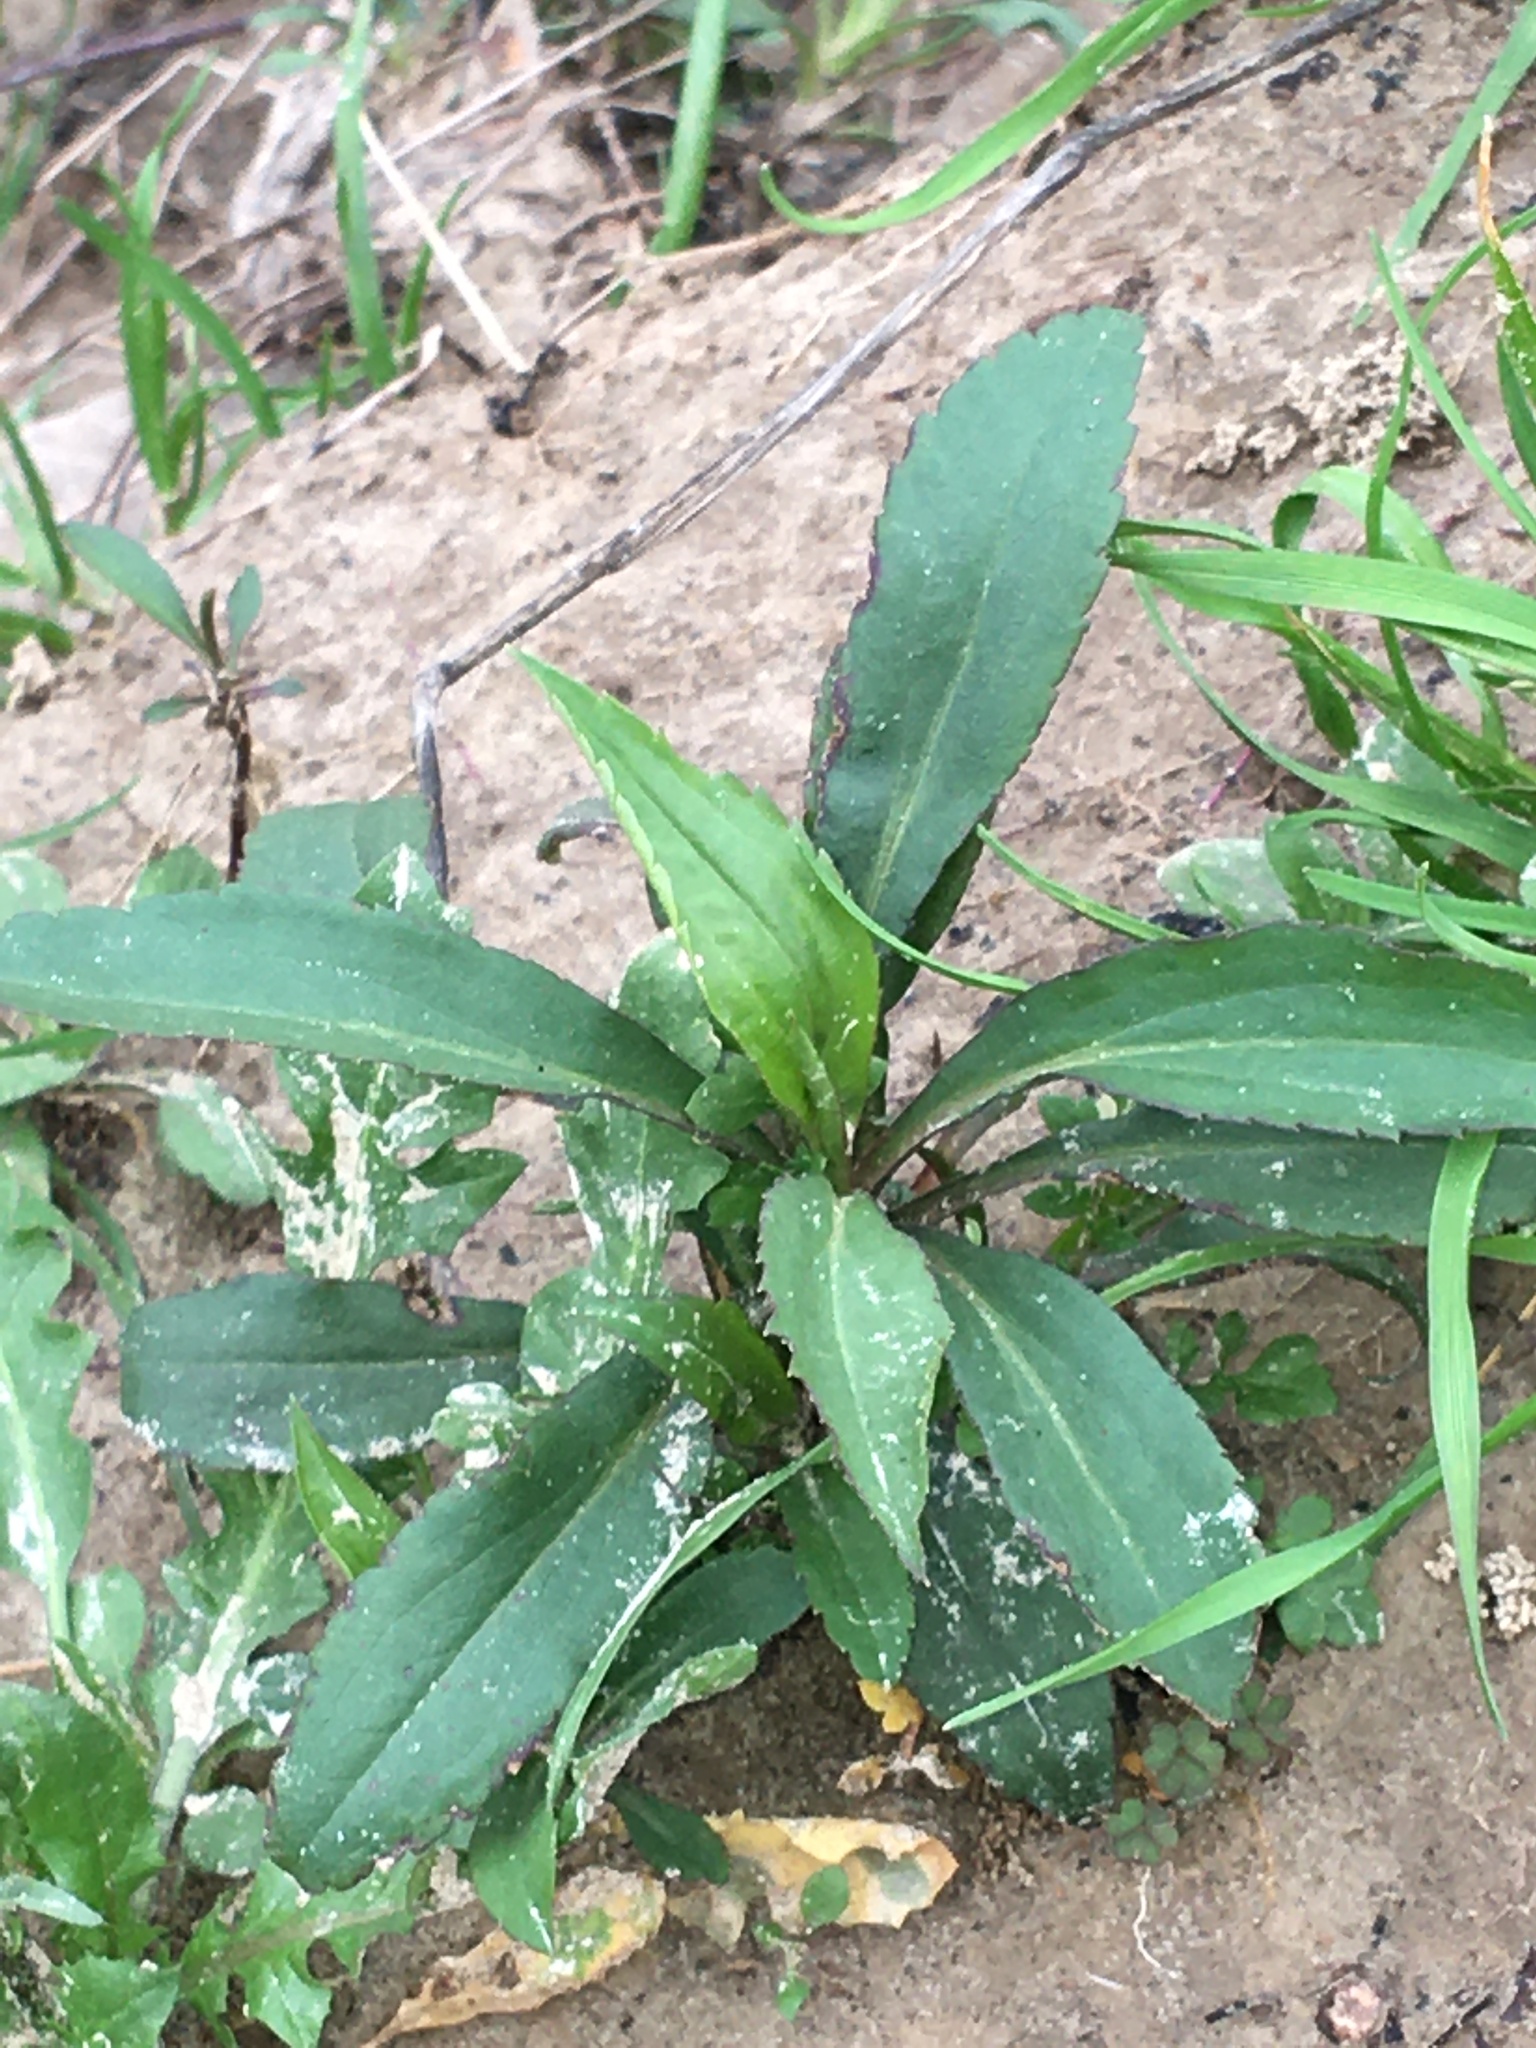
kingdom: Plantae
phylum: Tracheophyta
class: Magnoliopsida
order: Asterales
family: Asteraceae
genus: Solidago
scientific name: Solidago altissima
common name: Late goldenrod
